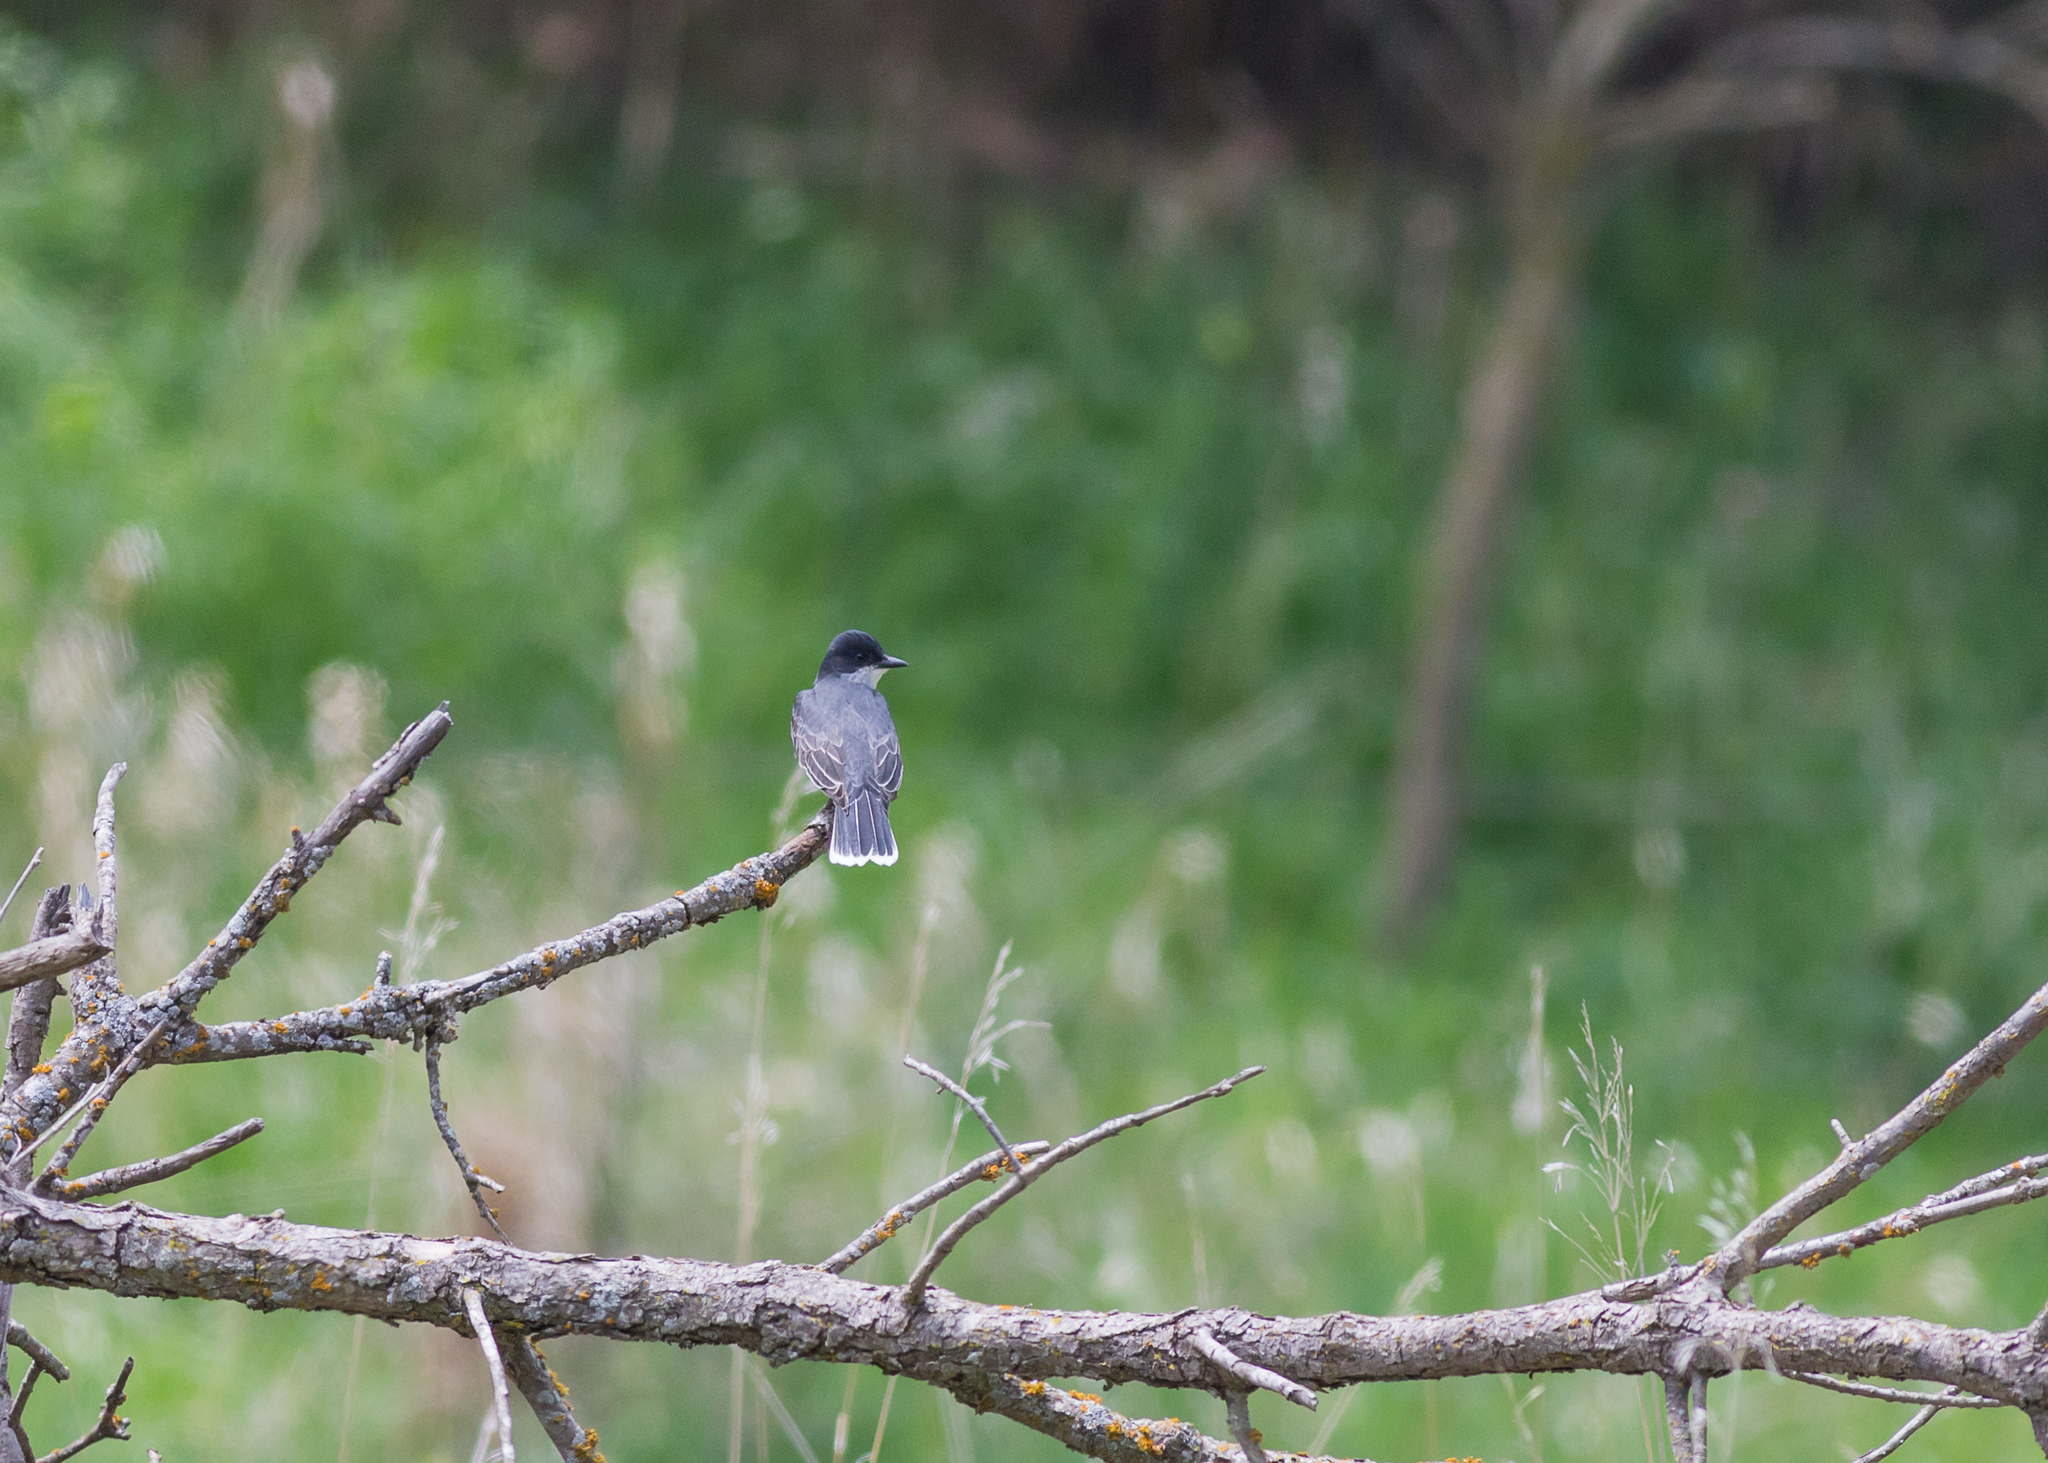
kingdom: Animalia
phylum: Chordata
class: Aves
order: Passeriformes
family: Tyrannidae
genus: Tyrannus
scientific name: Tyrannus tyrannus
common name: Eastern kingbird
